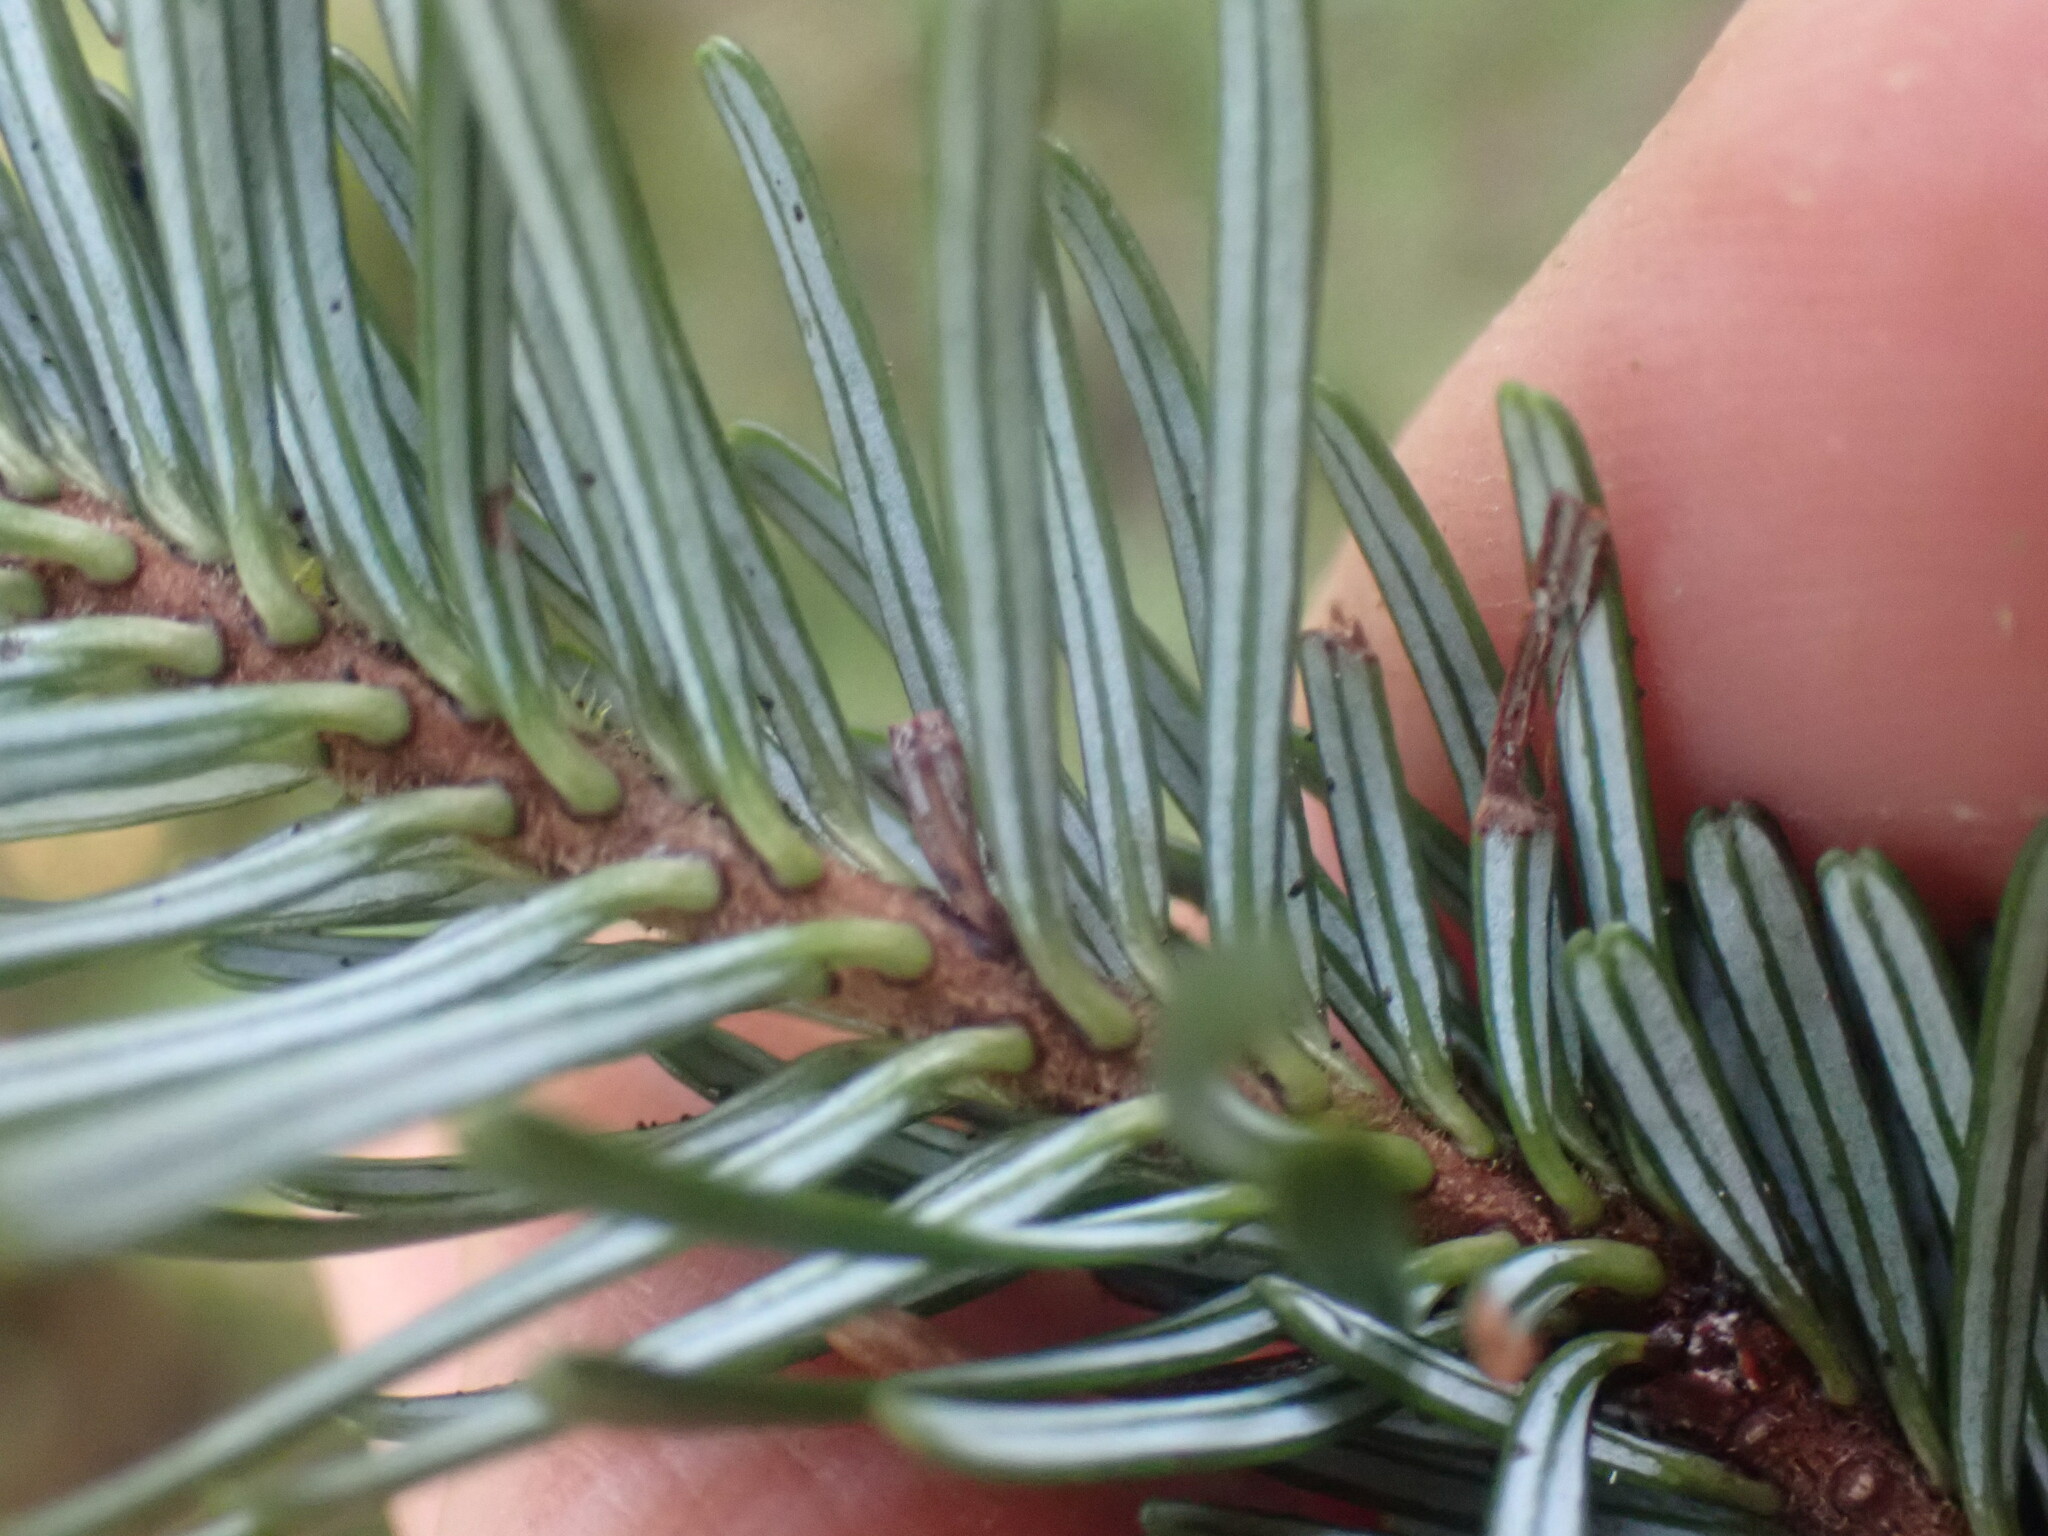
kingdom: Plantae
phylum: Tracheophyta
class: Pinopsida
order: Pinales
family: Pinaceae
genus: Abies
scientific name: Abies amabilis
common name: Pacific silver fir
